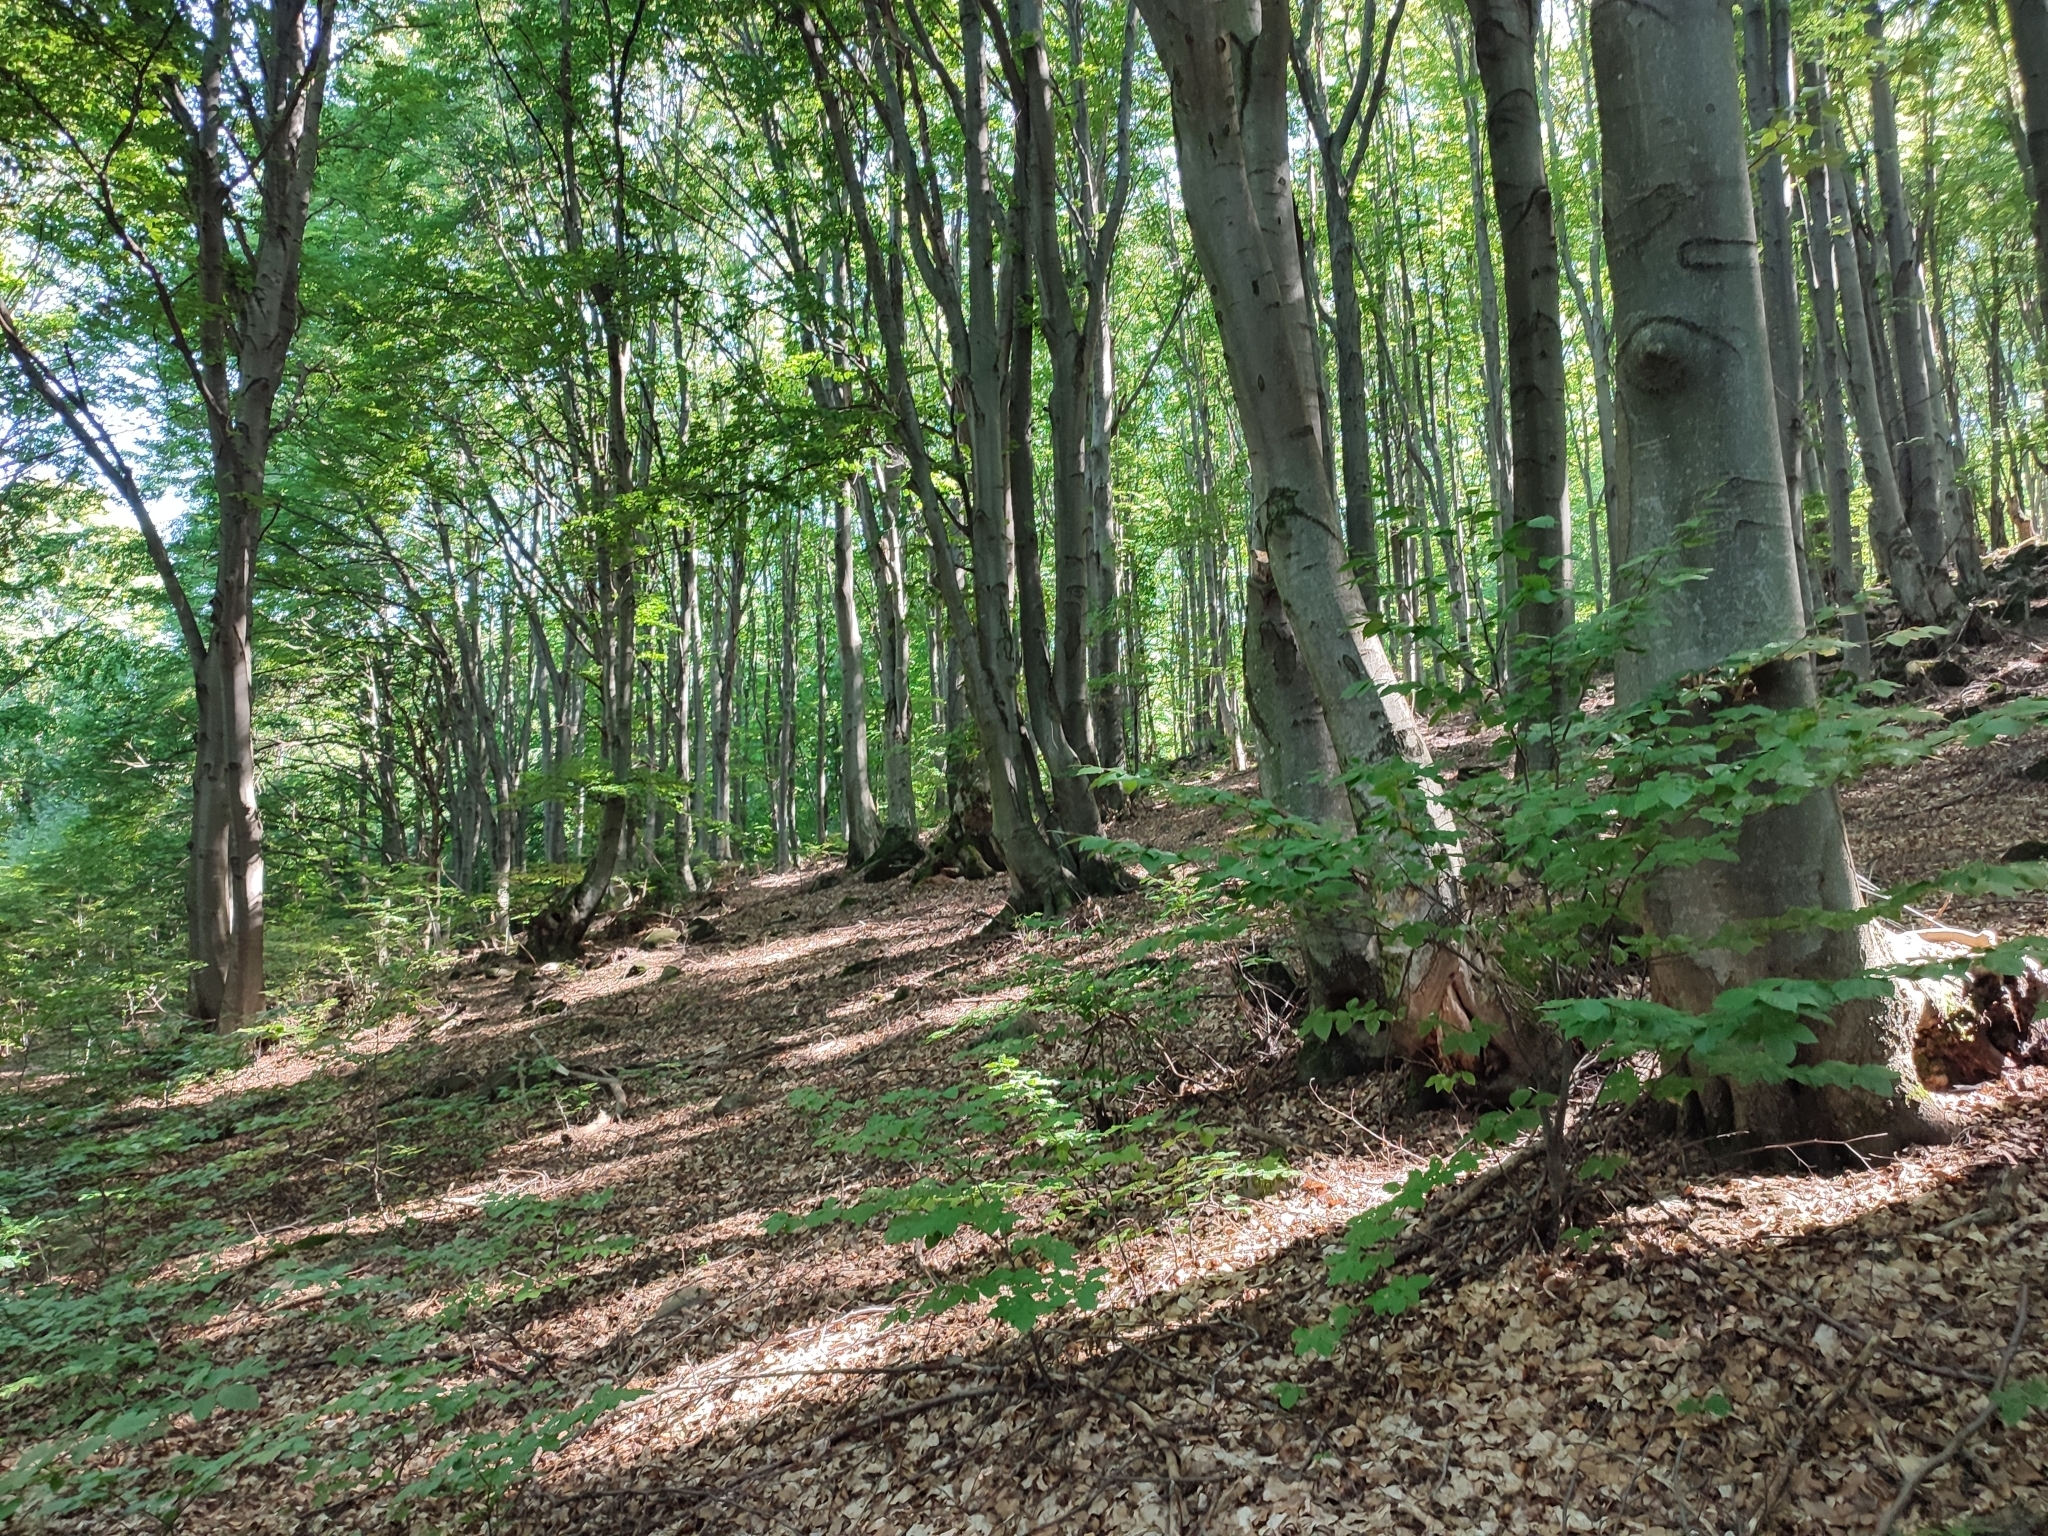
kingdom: Plantae
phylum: Tracheophyta
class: Magnoliopsida
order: Fagales
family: Fagaceae
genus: Fagus
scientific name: Fagus sylvatica
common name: Beech
